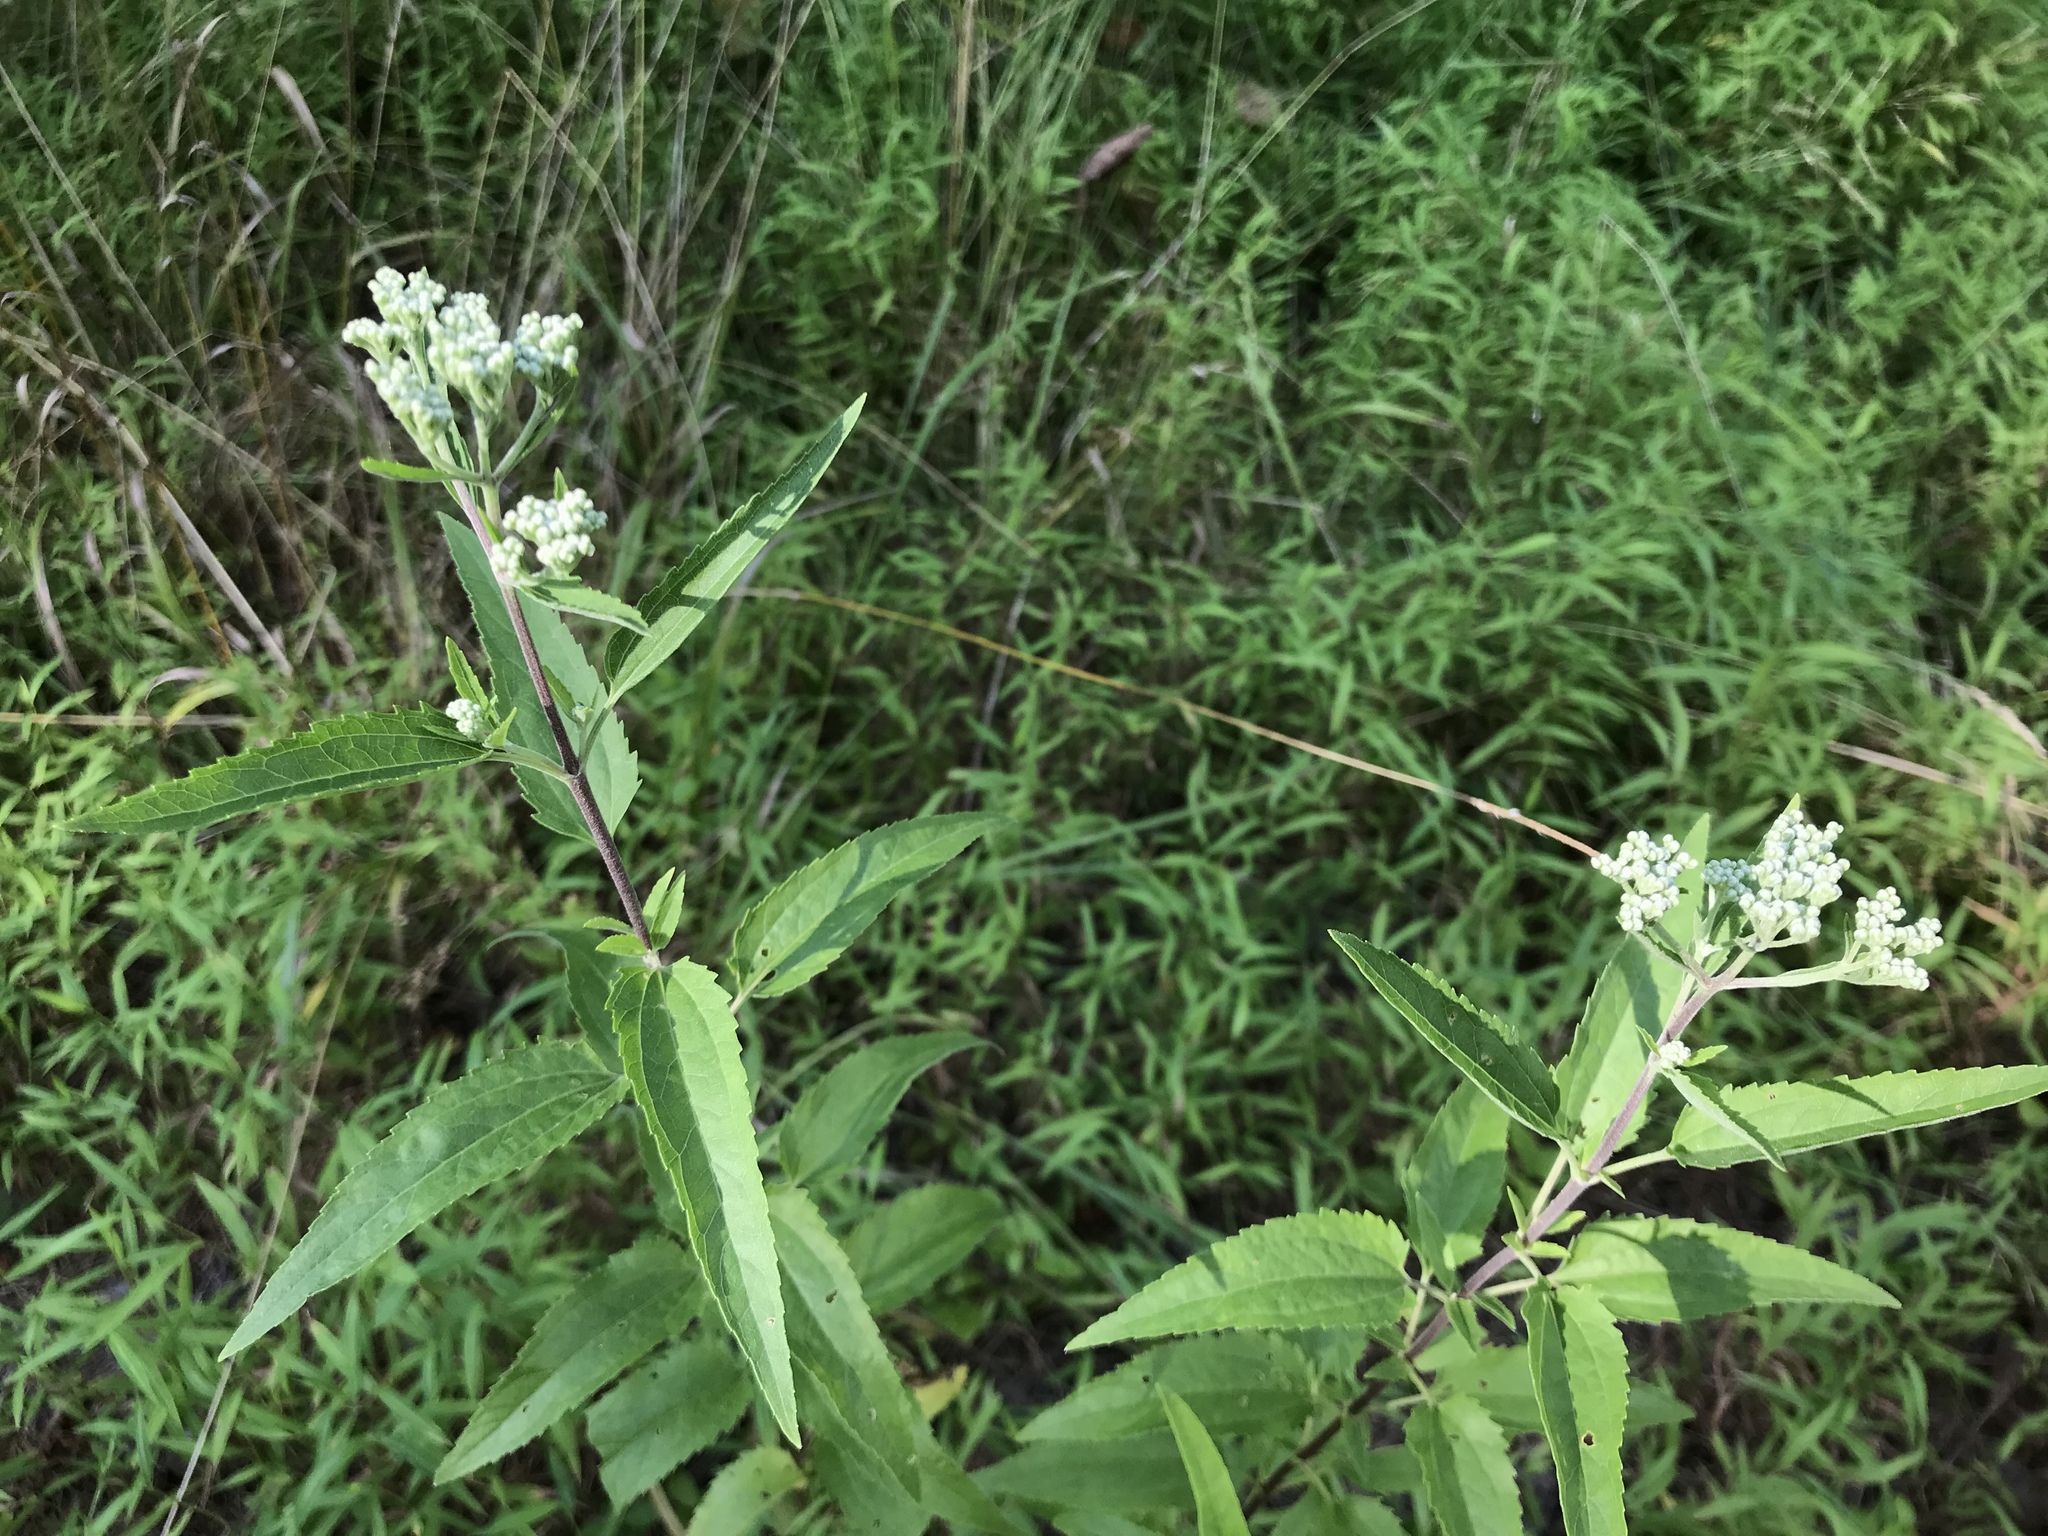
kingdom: Plantae
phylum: Tracheophyta
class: Magnoliopsida
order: Asterales
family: Asteraceae
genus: Eupatorium
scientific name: Eupatorium serotinum
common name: Late boneset
